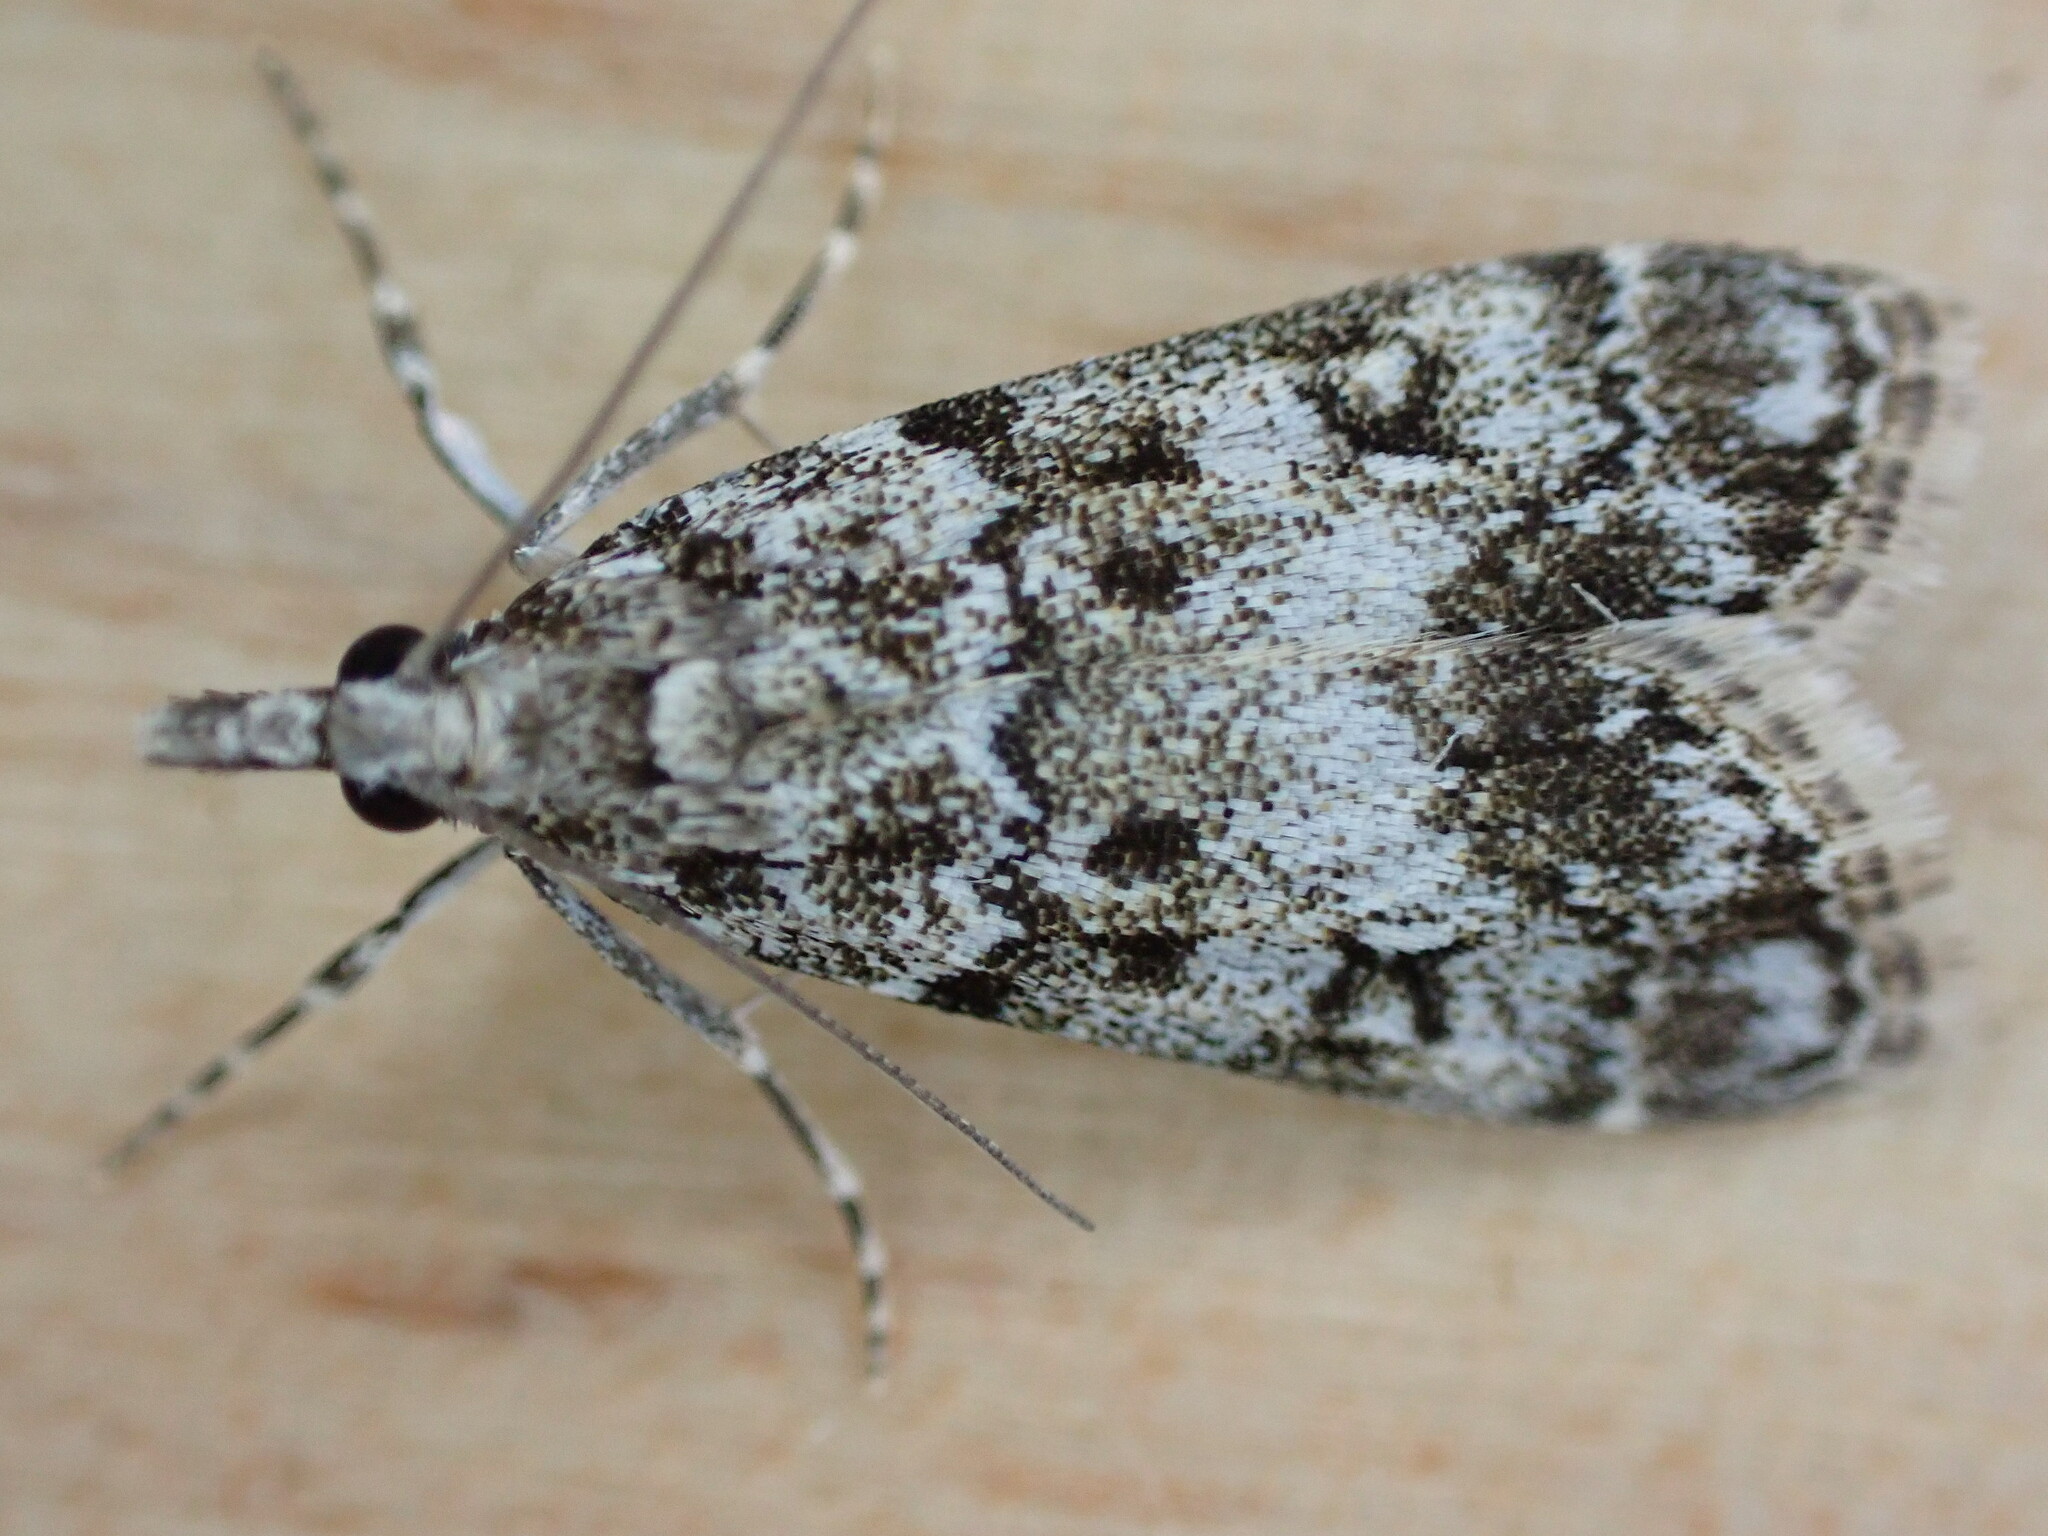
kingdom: Animalia
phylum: Arthropoda
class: Insecta
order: Lepidoptera
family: Crambidae
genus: Eudonia
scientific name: Eudonia lacustrata
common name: Little grey
